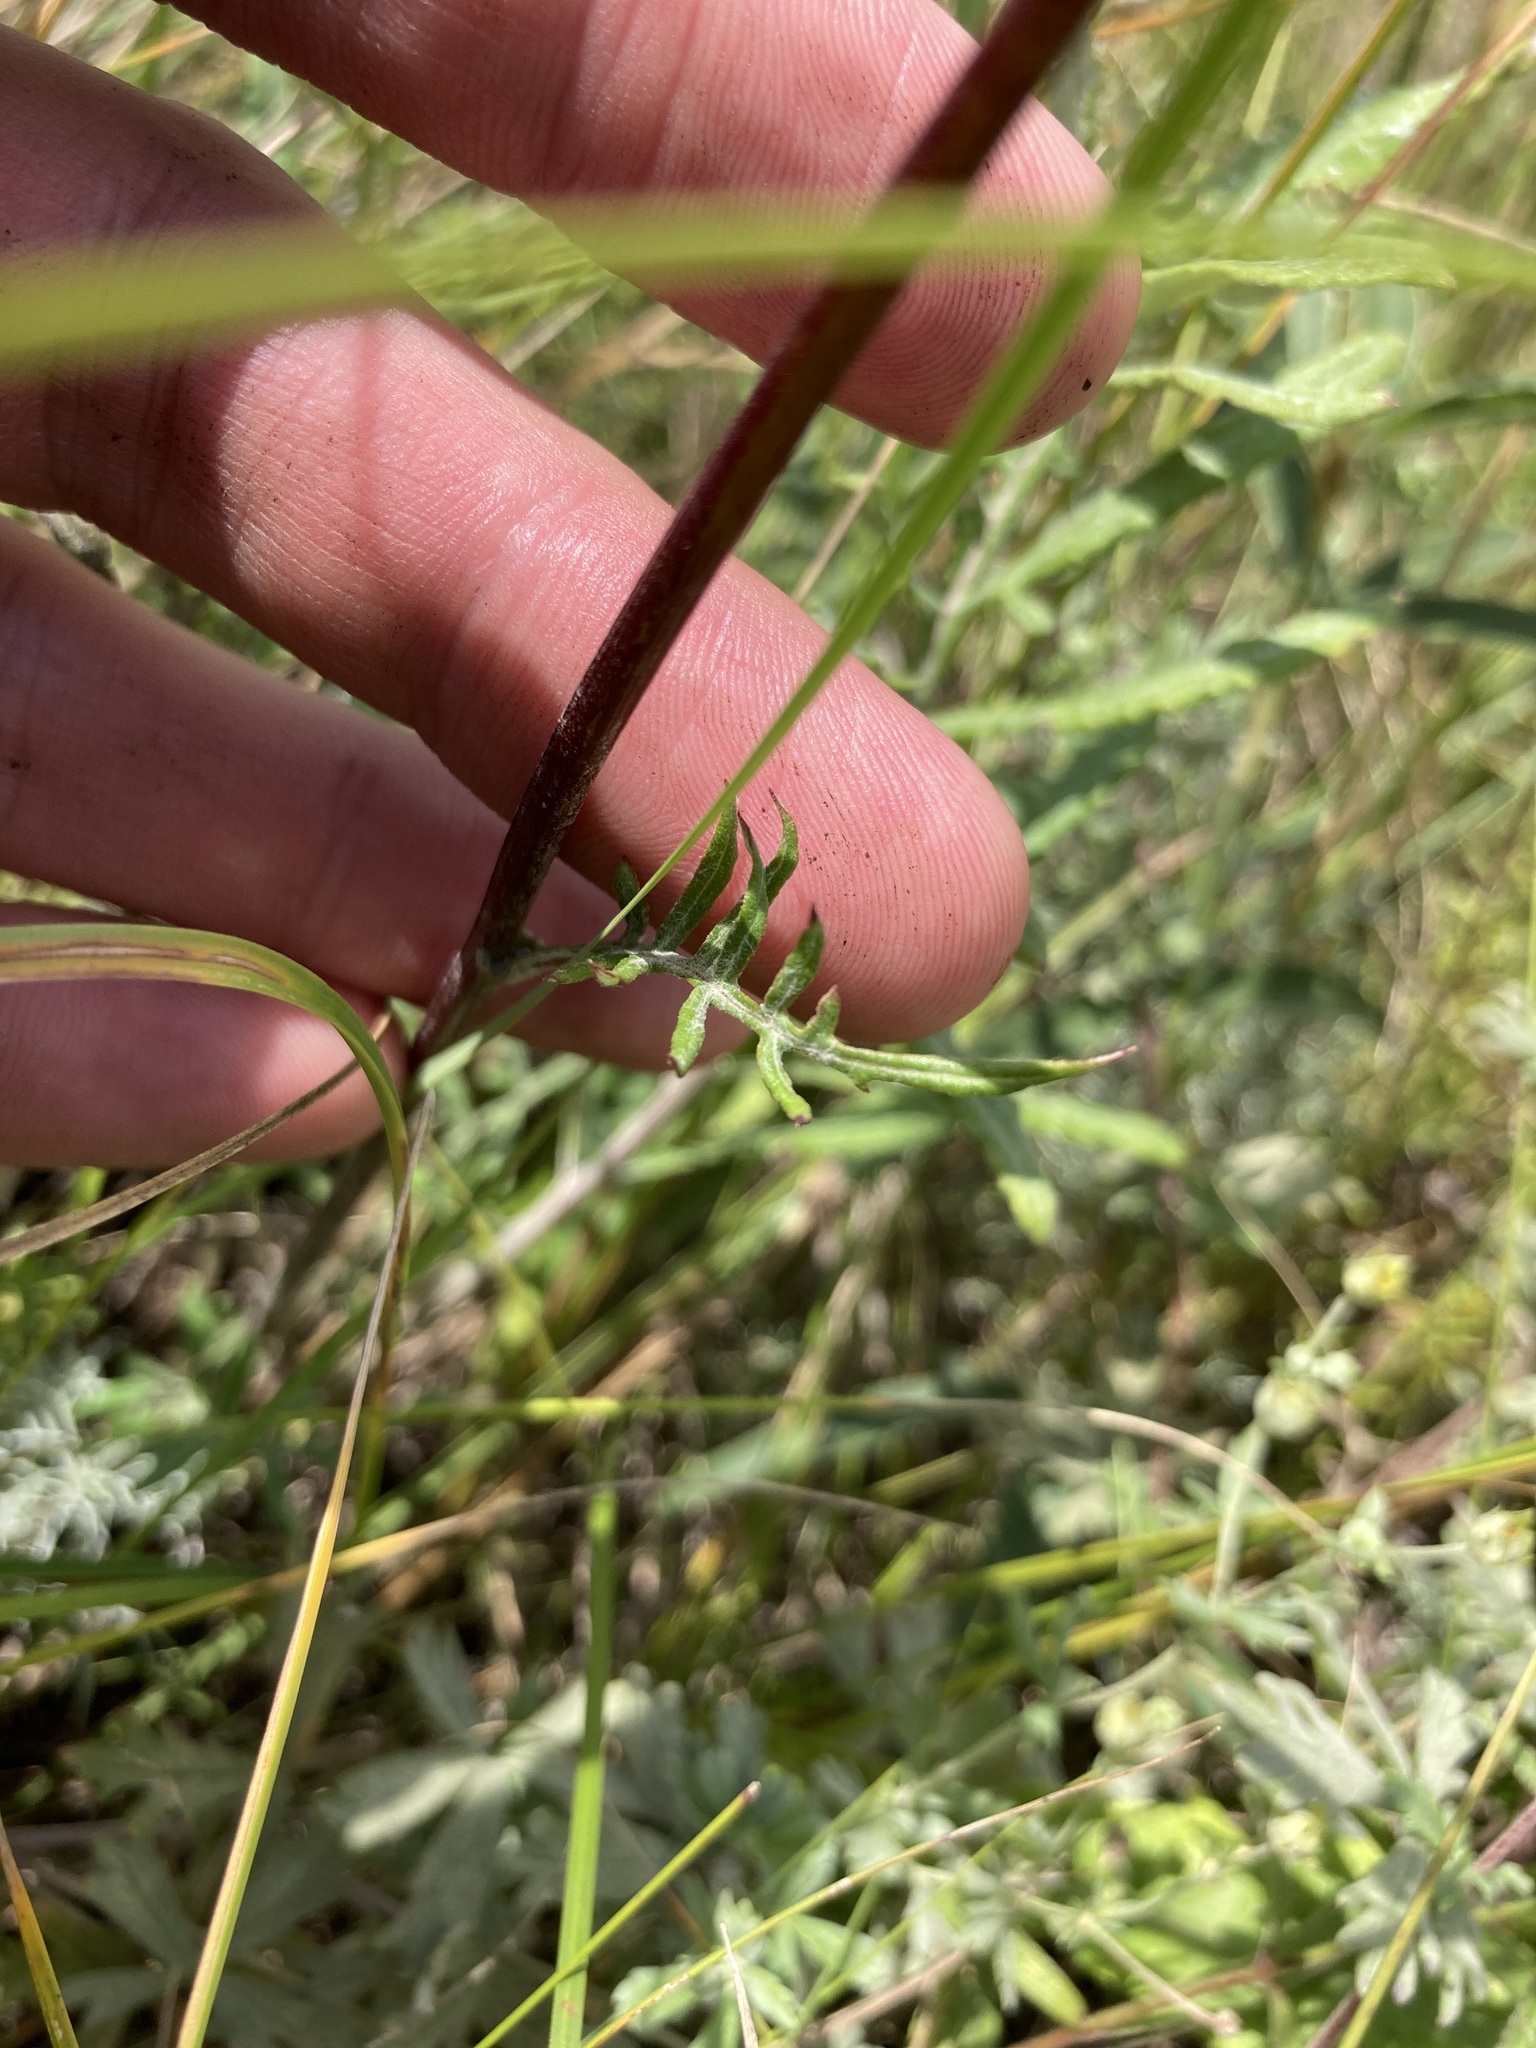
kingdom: Plantae
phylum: Tracheophyta
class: Magnoliopsida
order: Asterales
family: Asteraceae
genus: Jurinea
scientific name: Jurinea cyanoides
